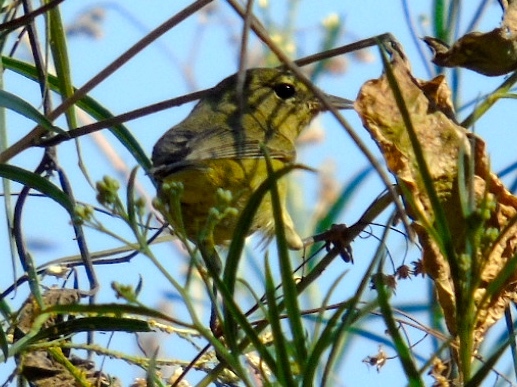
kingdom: Animalia
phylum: Chordata
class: Aves
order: Passeriformes
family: Parulidae
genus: Leiothlypis
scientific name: Leiothlypis celata
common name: Orange-crowned warbler
